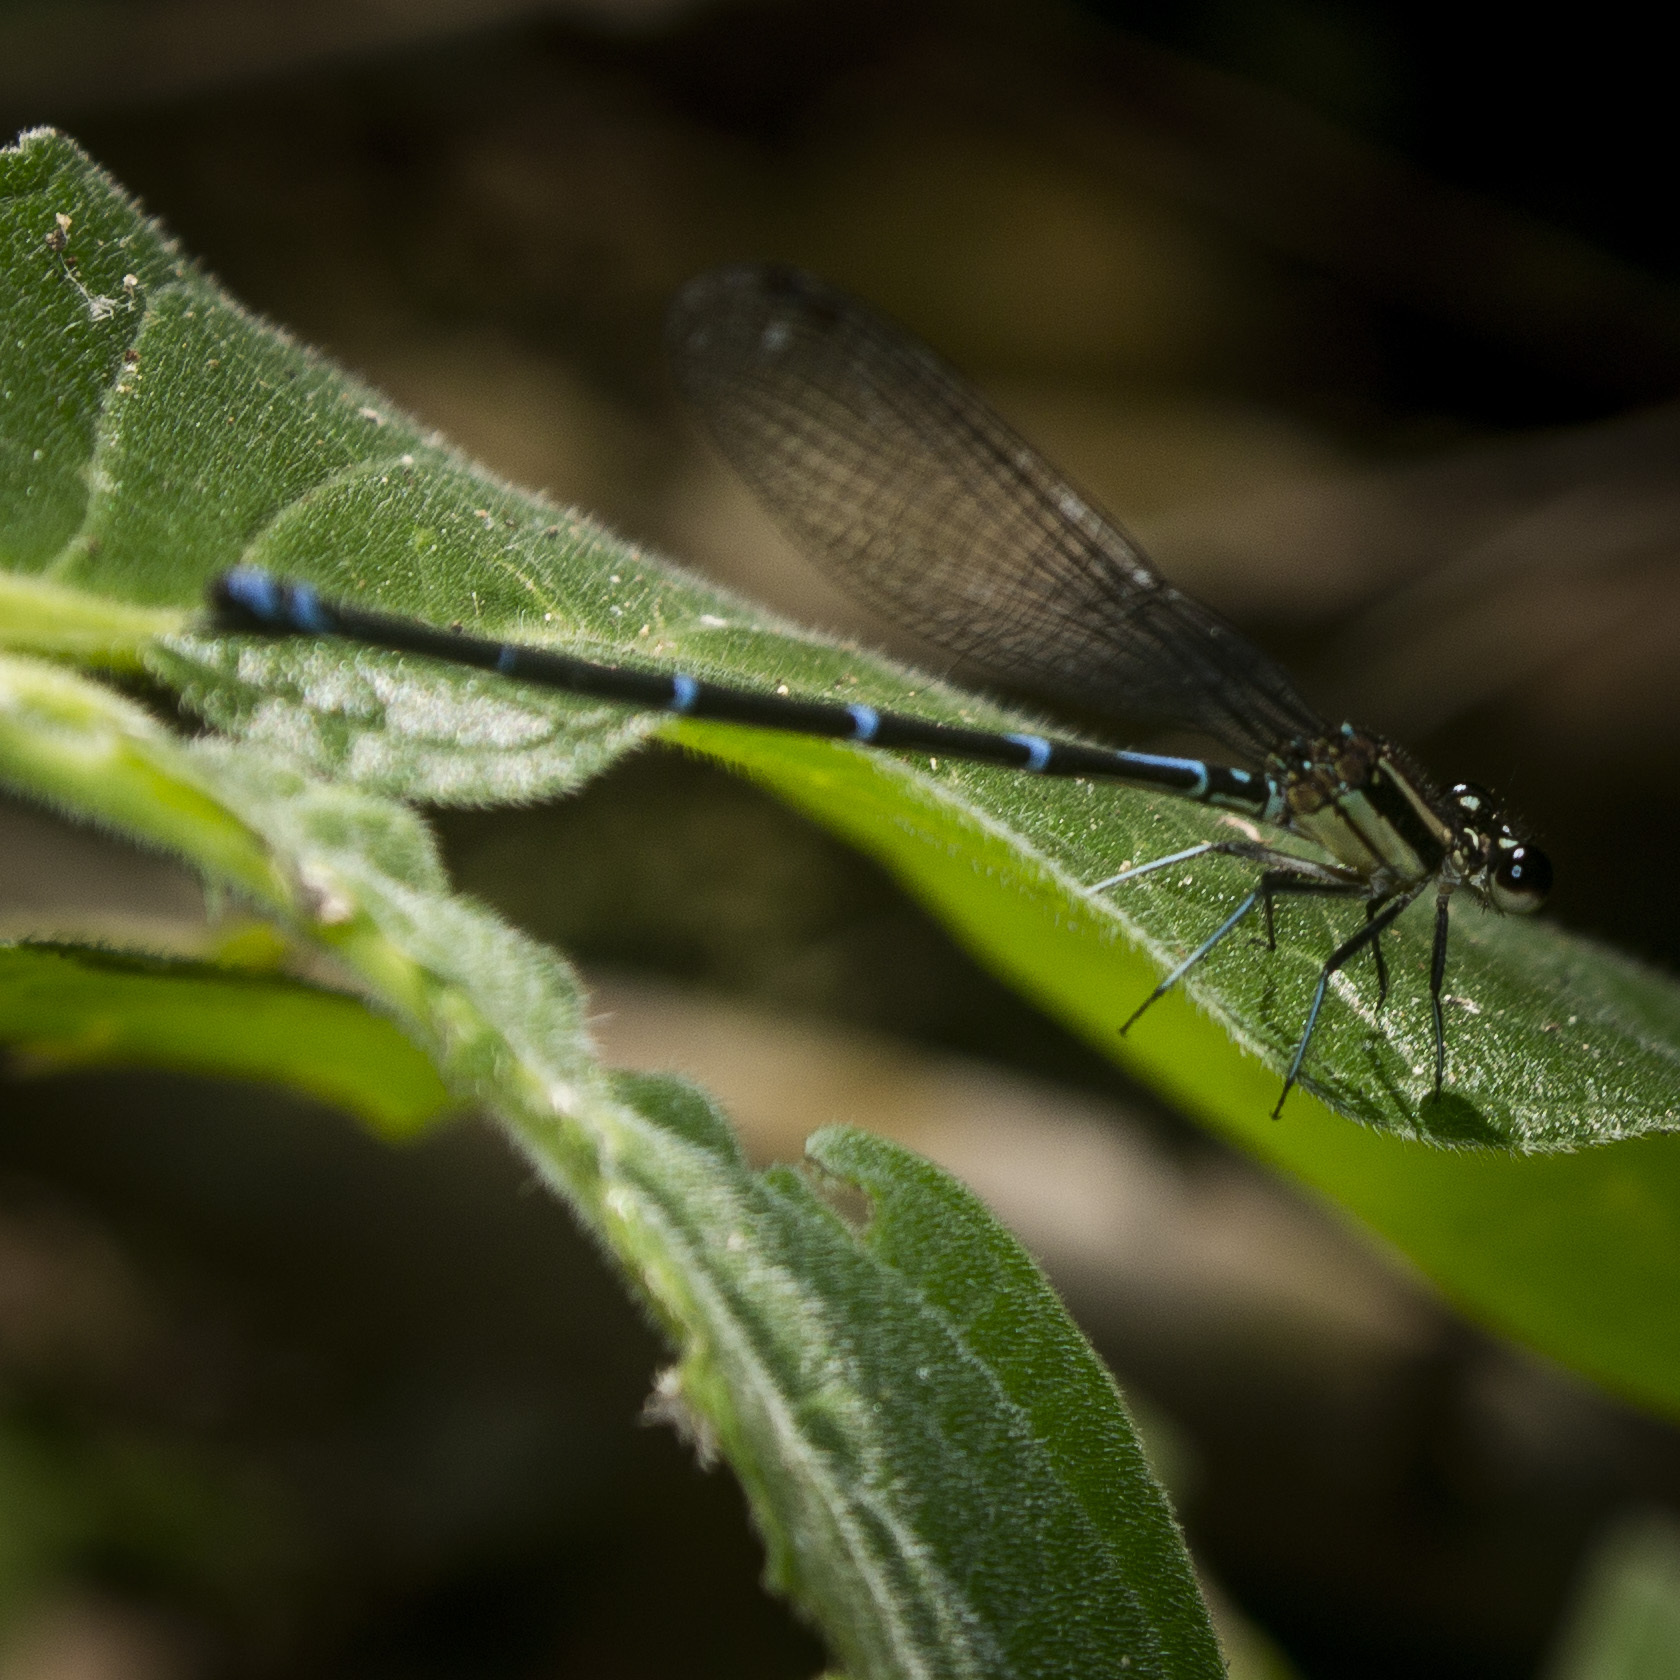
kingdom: Animalia
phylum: Arthropoda
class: Insecta
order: Odonata
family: Coenagrionidae
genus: Argia
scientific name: Argia oculata
